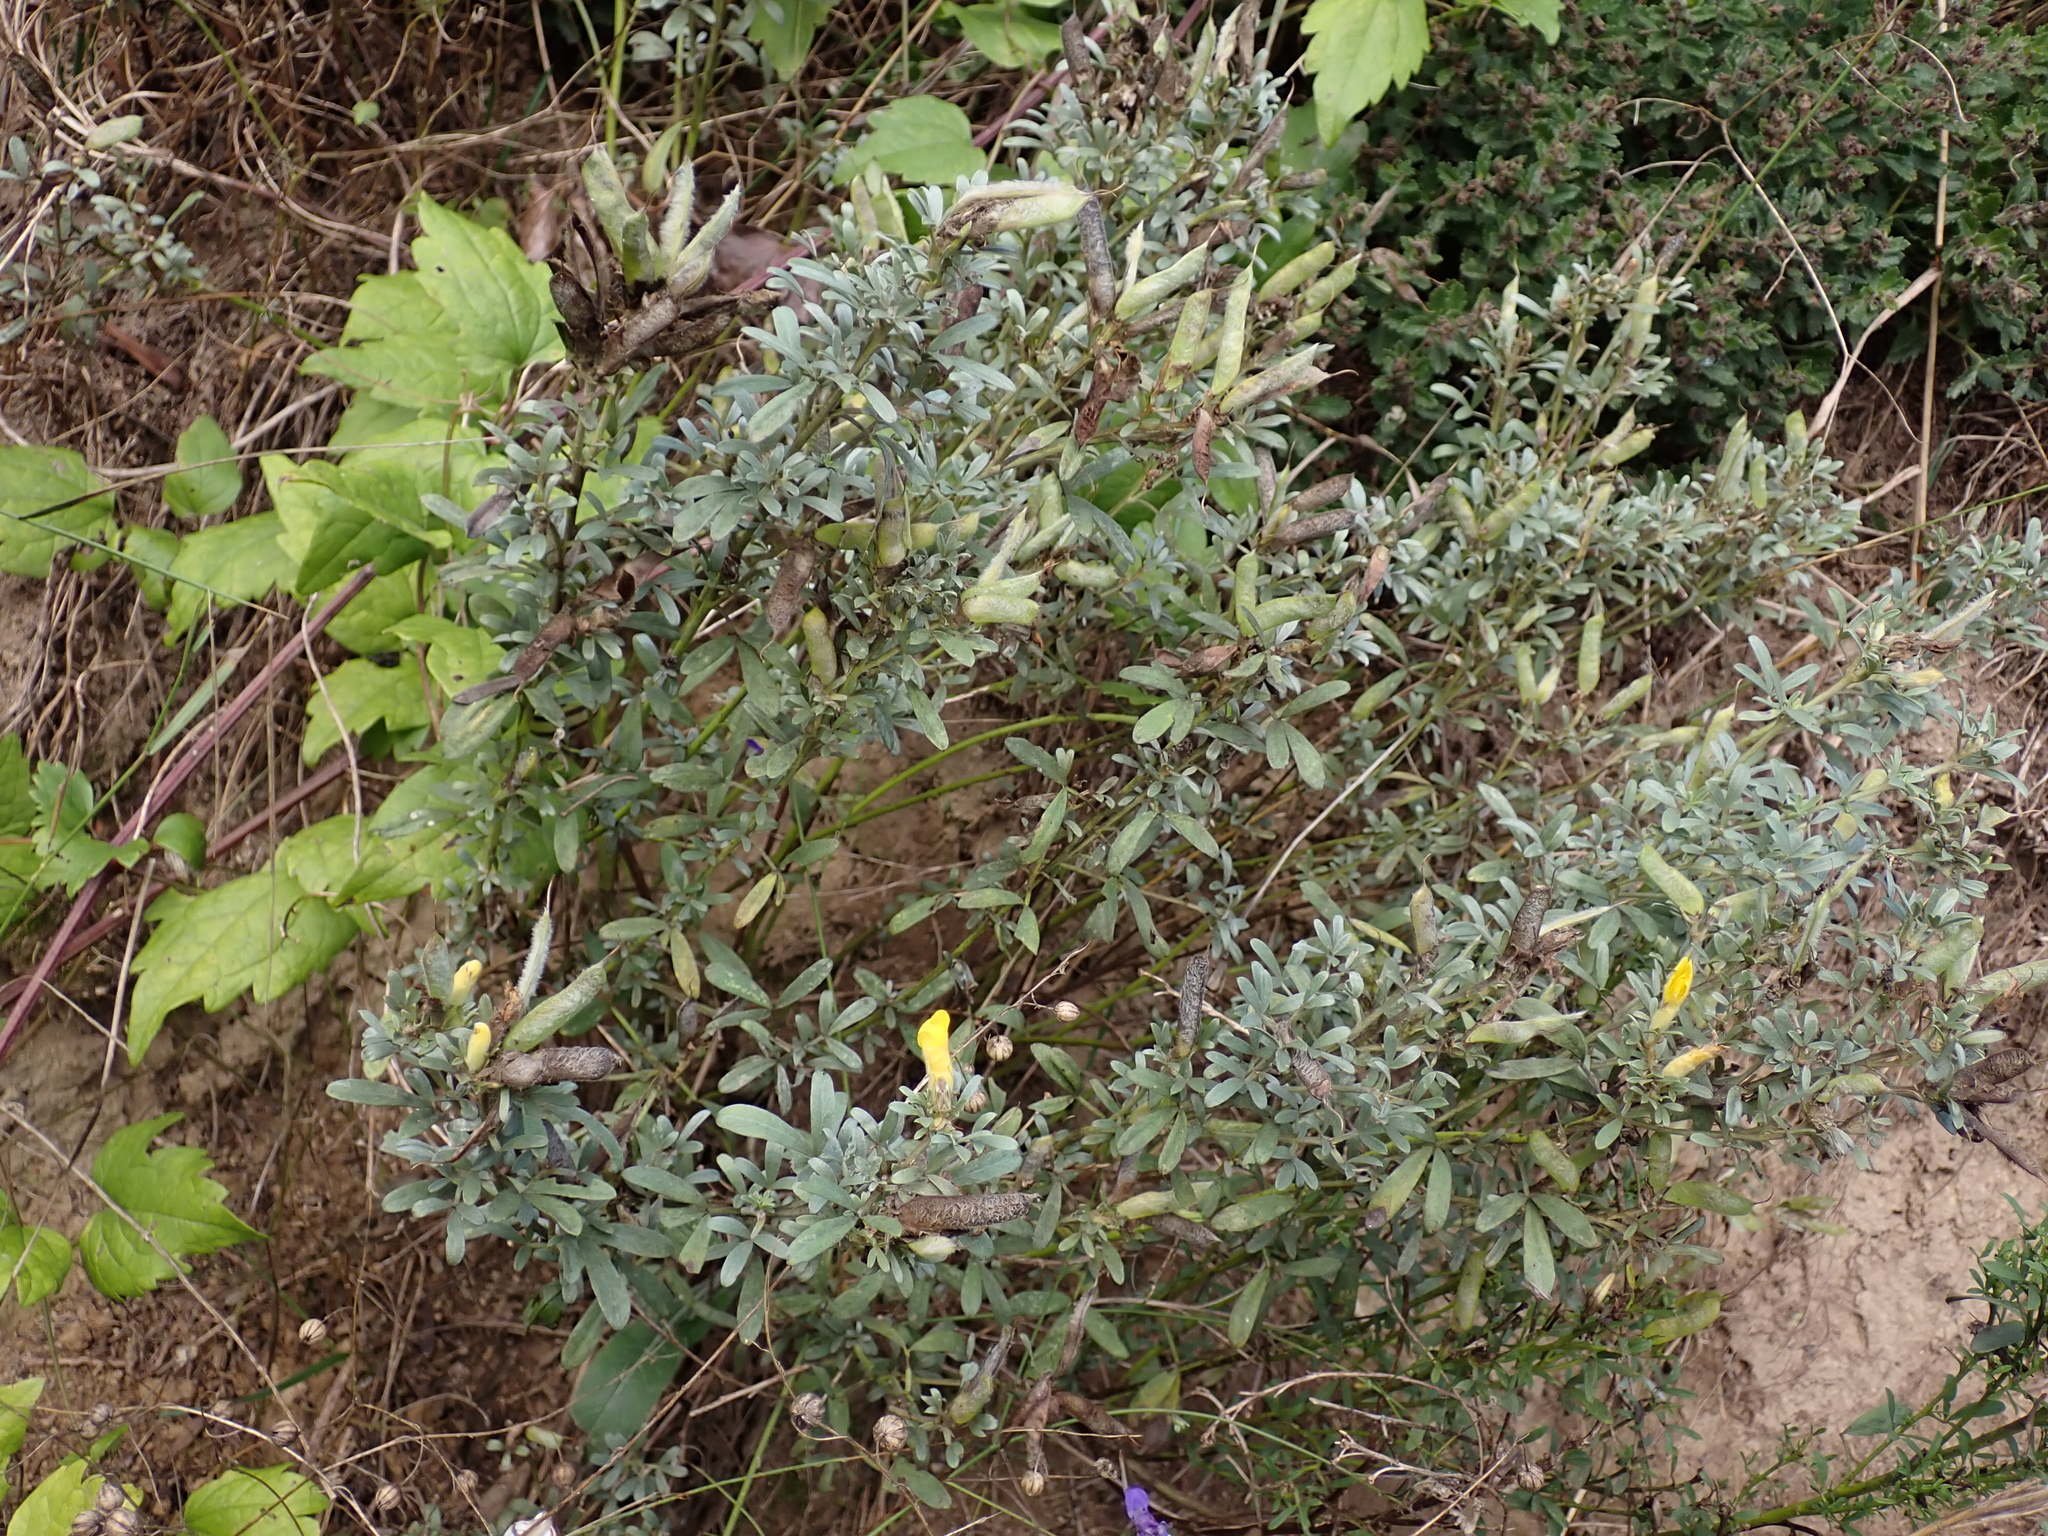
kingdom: Plantae
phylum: Tracheophyta
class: Magnoliopsida
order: Fabales
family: Fabaceae
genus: Chamaecytisus
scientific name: Chamaecytisus austriacus
